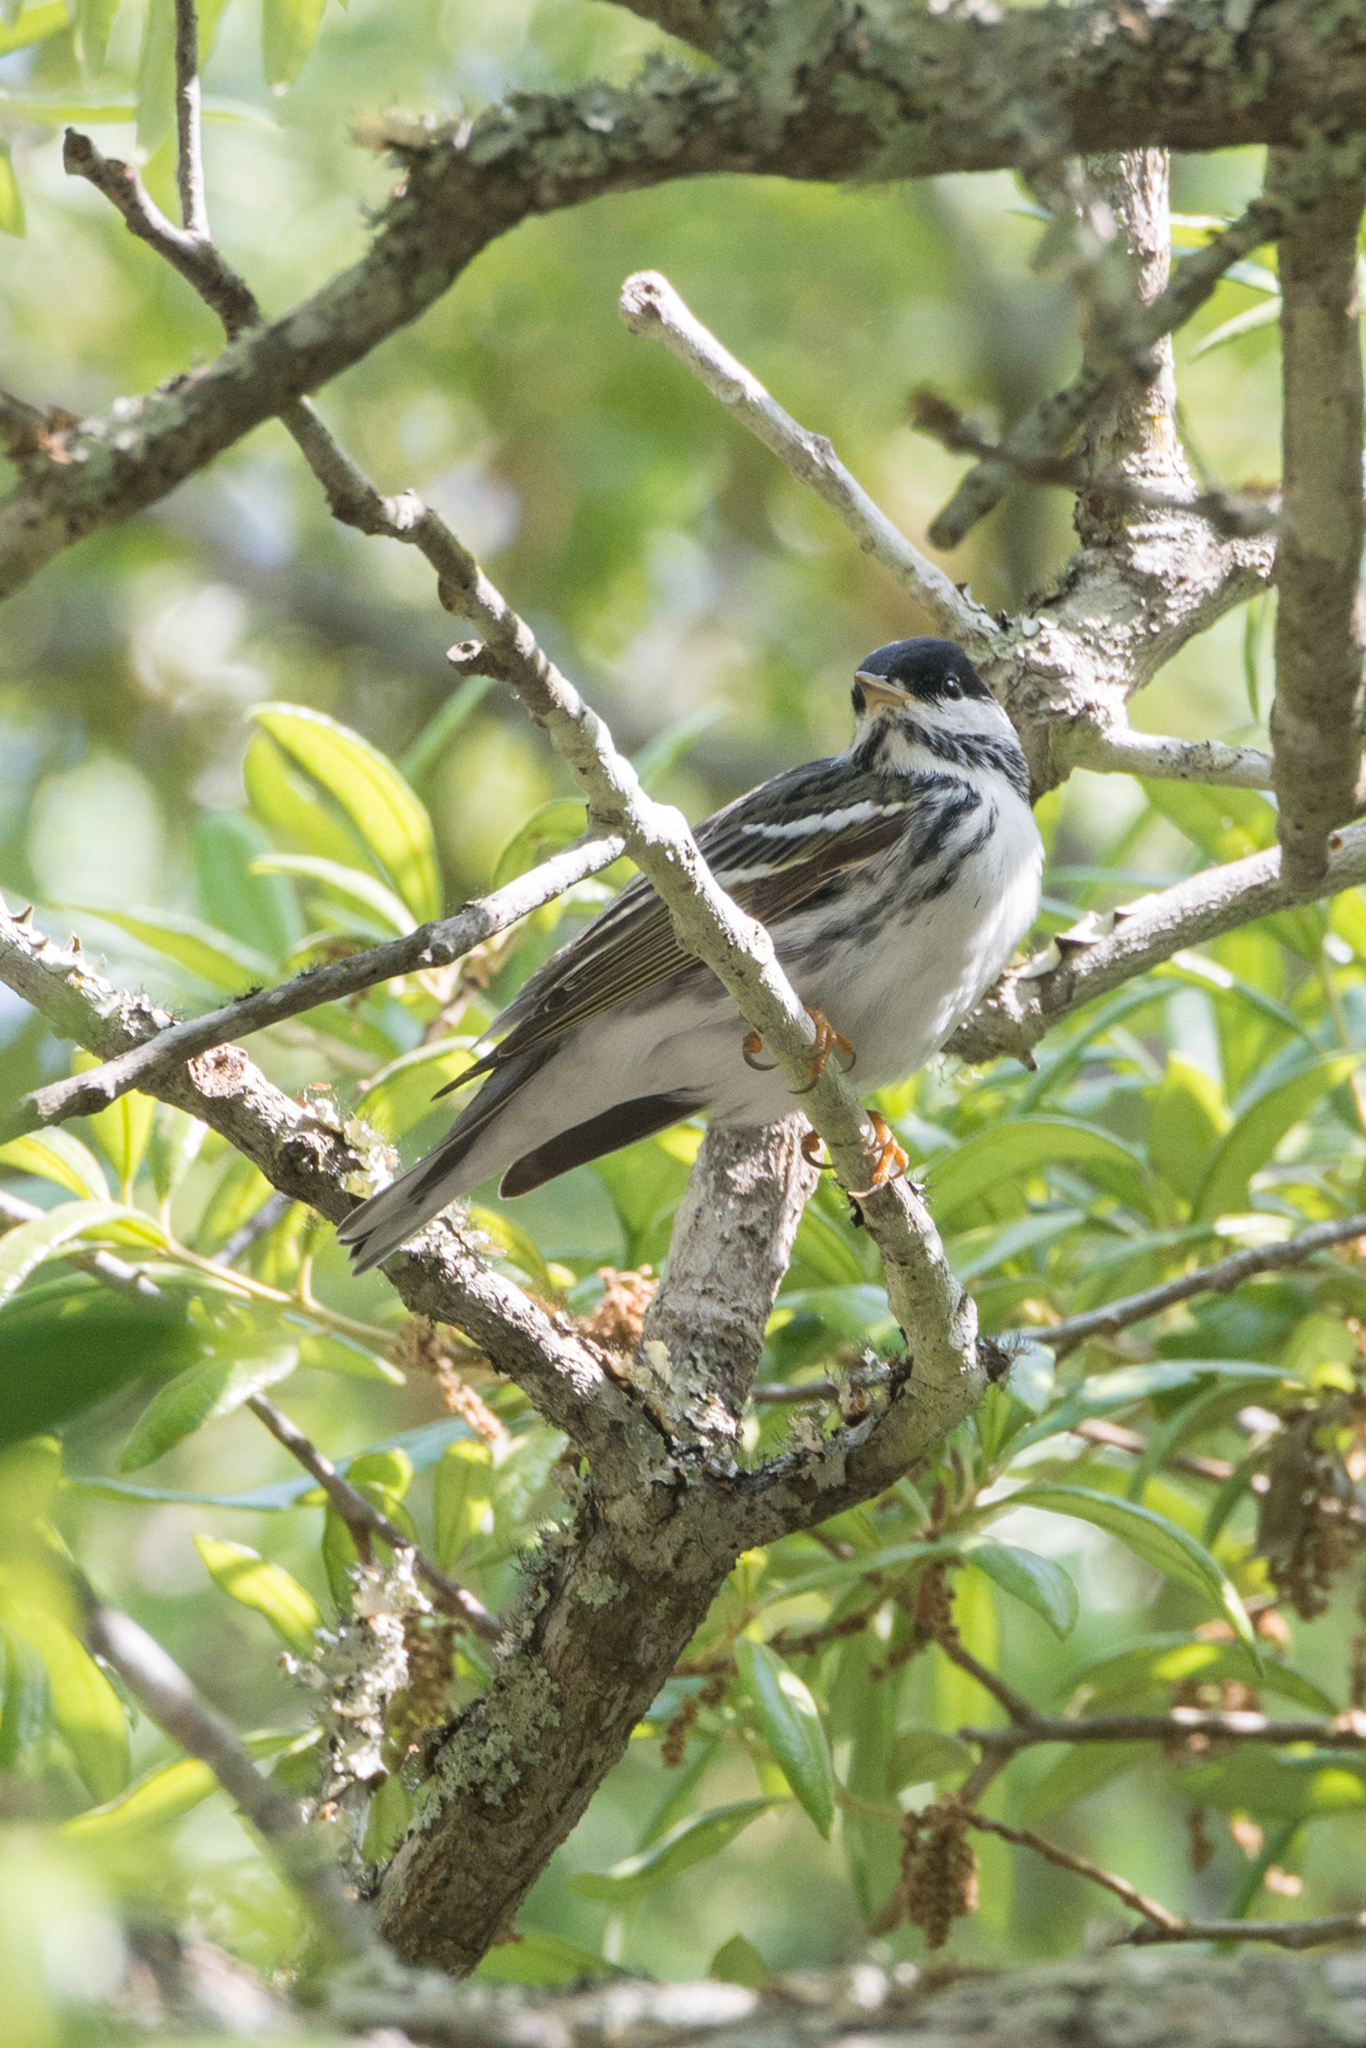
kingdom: Animalia
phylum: Chordata
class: Aves
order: Passeriformes
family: Parulidae
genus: Setophaga
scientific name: Setophaga striata
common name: Blackpoll warbler
